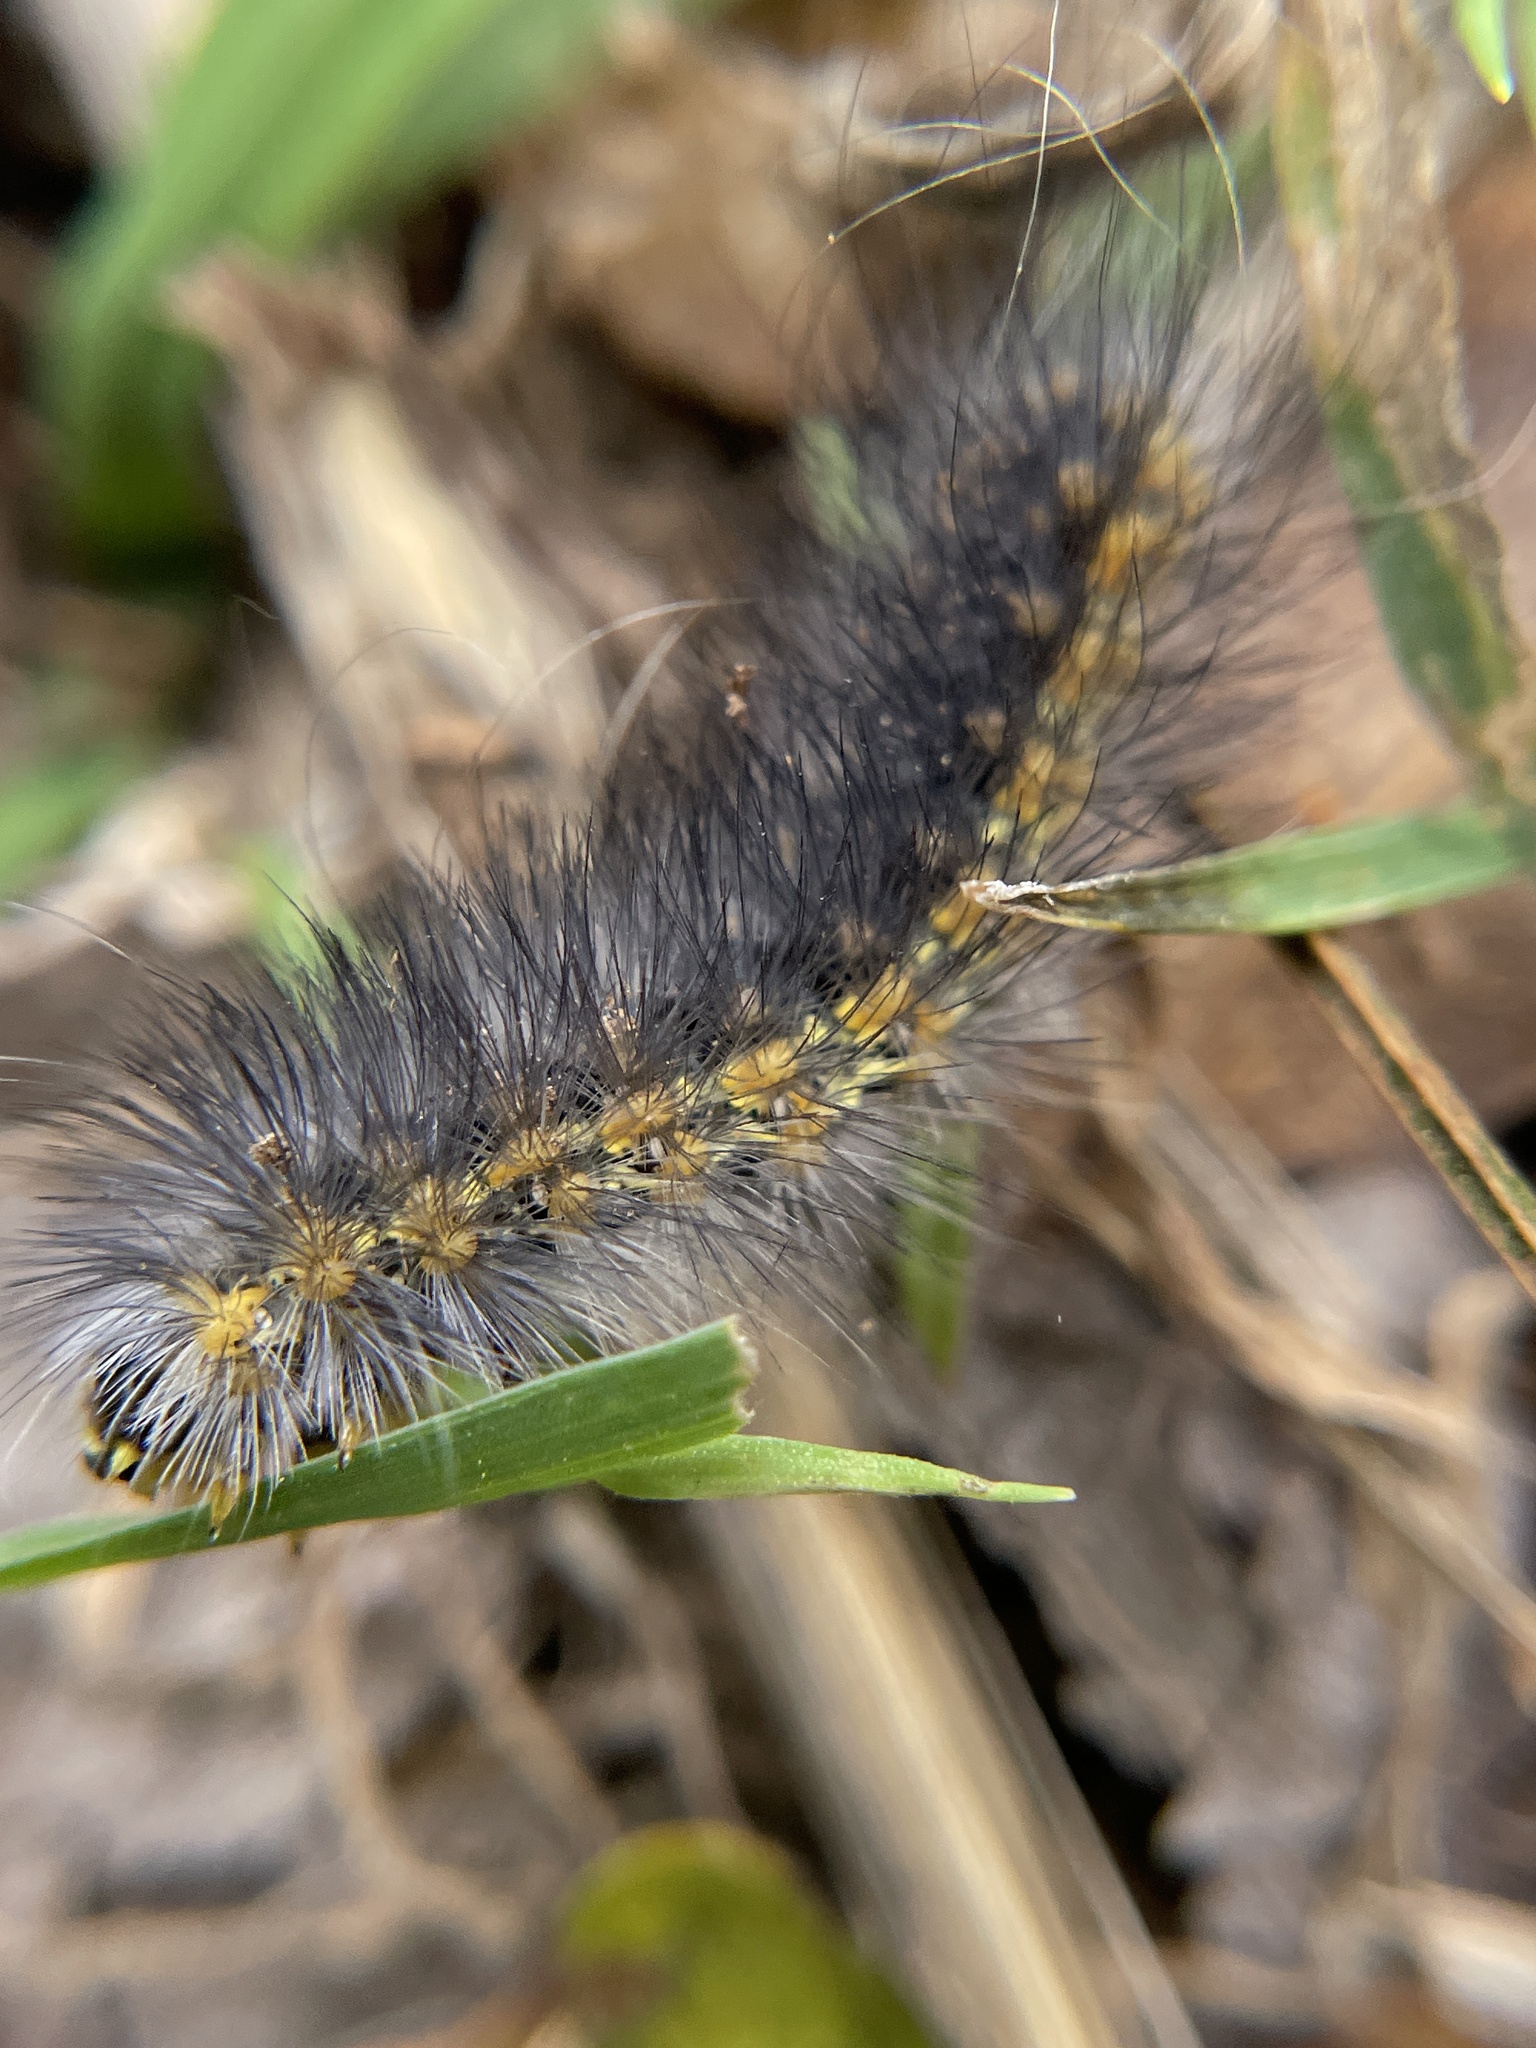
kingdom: Animalia
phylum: Arthropoda
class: Insecta
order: Lepidoptera
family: Erebidae
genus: Estigmene
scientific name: Estigmene acrea
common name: Salt marsh moth
